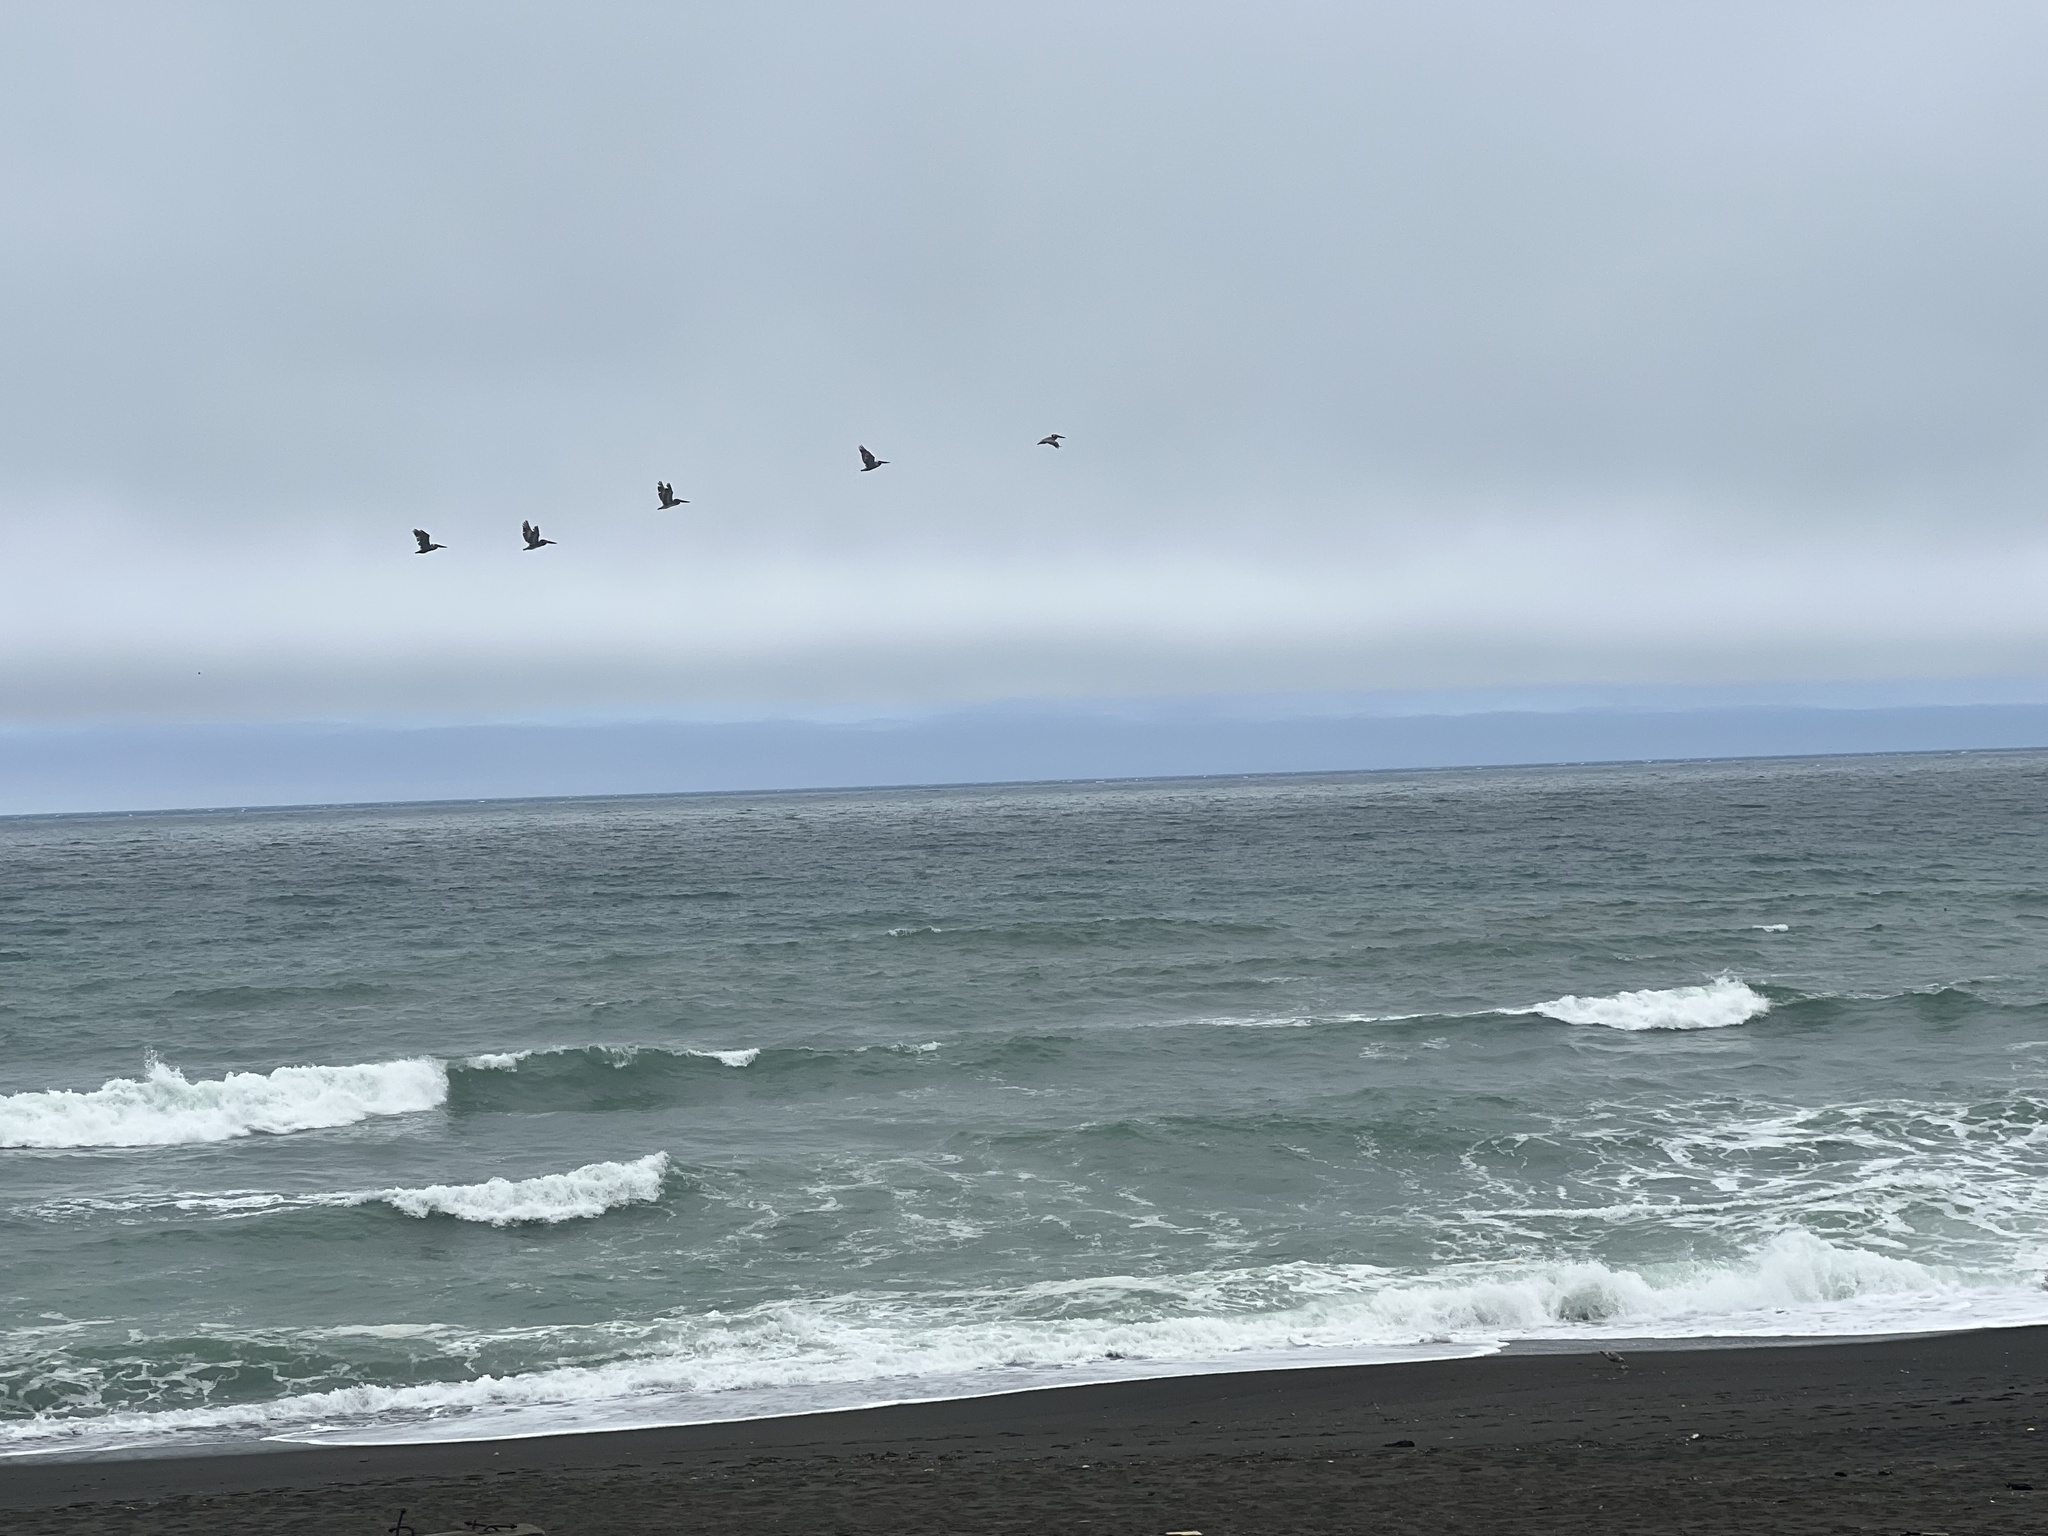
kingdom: Animalia
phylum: Chordata
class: Aves
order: Pelecaniformes
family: Pelecanidae
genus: Pelecanus
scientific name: Pelecanus occidentalis
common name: Brown pelican
